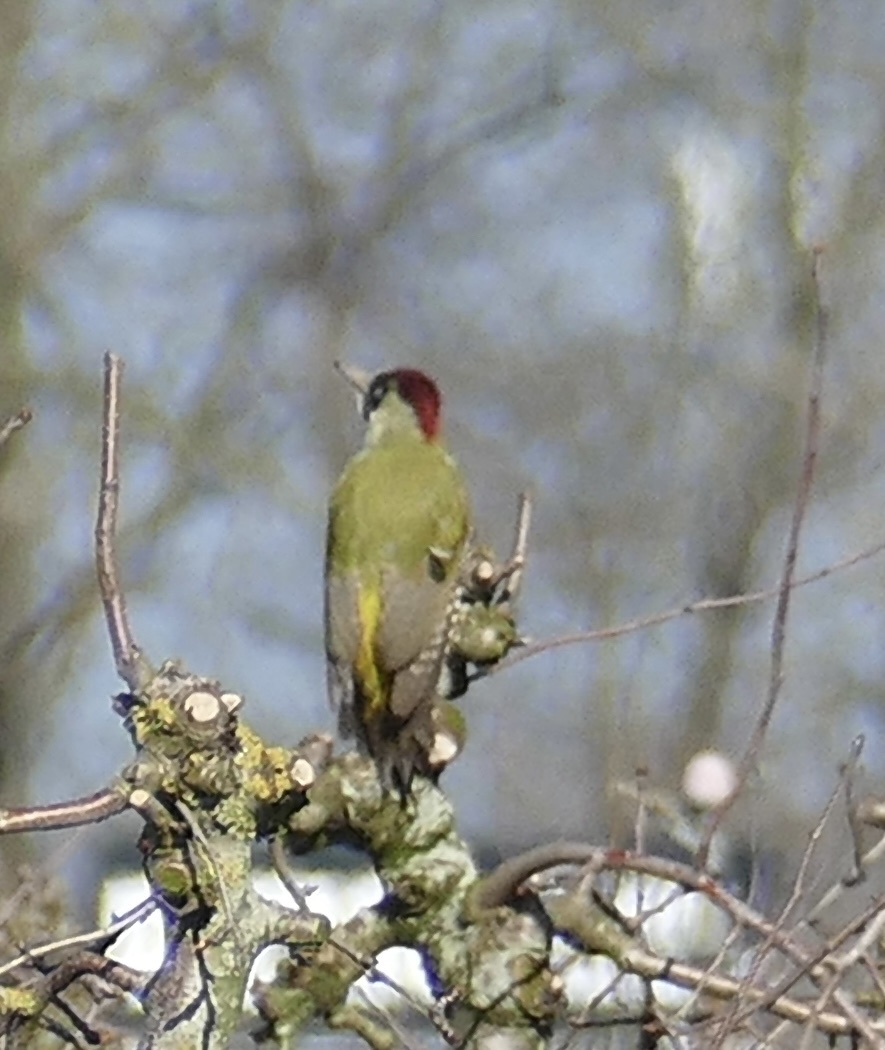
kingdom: Animalia
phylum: Chordata
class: Aves
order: Piciformes
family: Picidae
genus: Picus
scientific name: Picus viridis
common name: European green woodpecker
